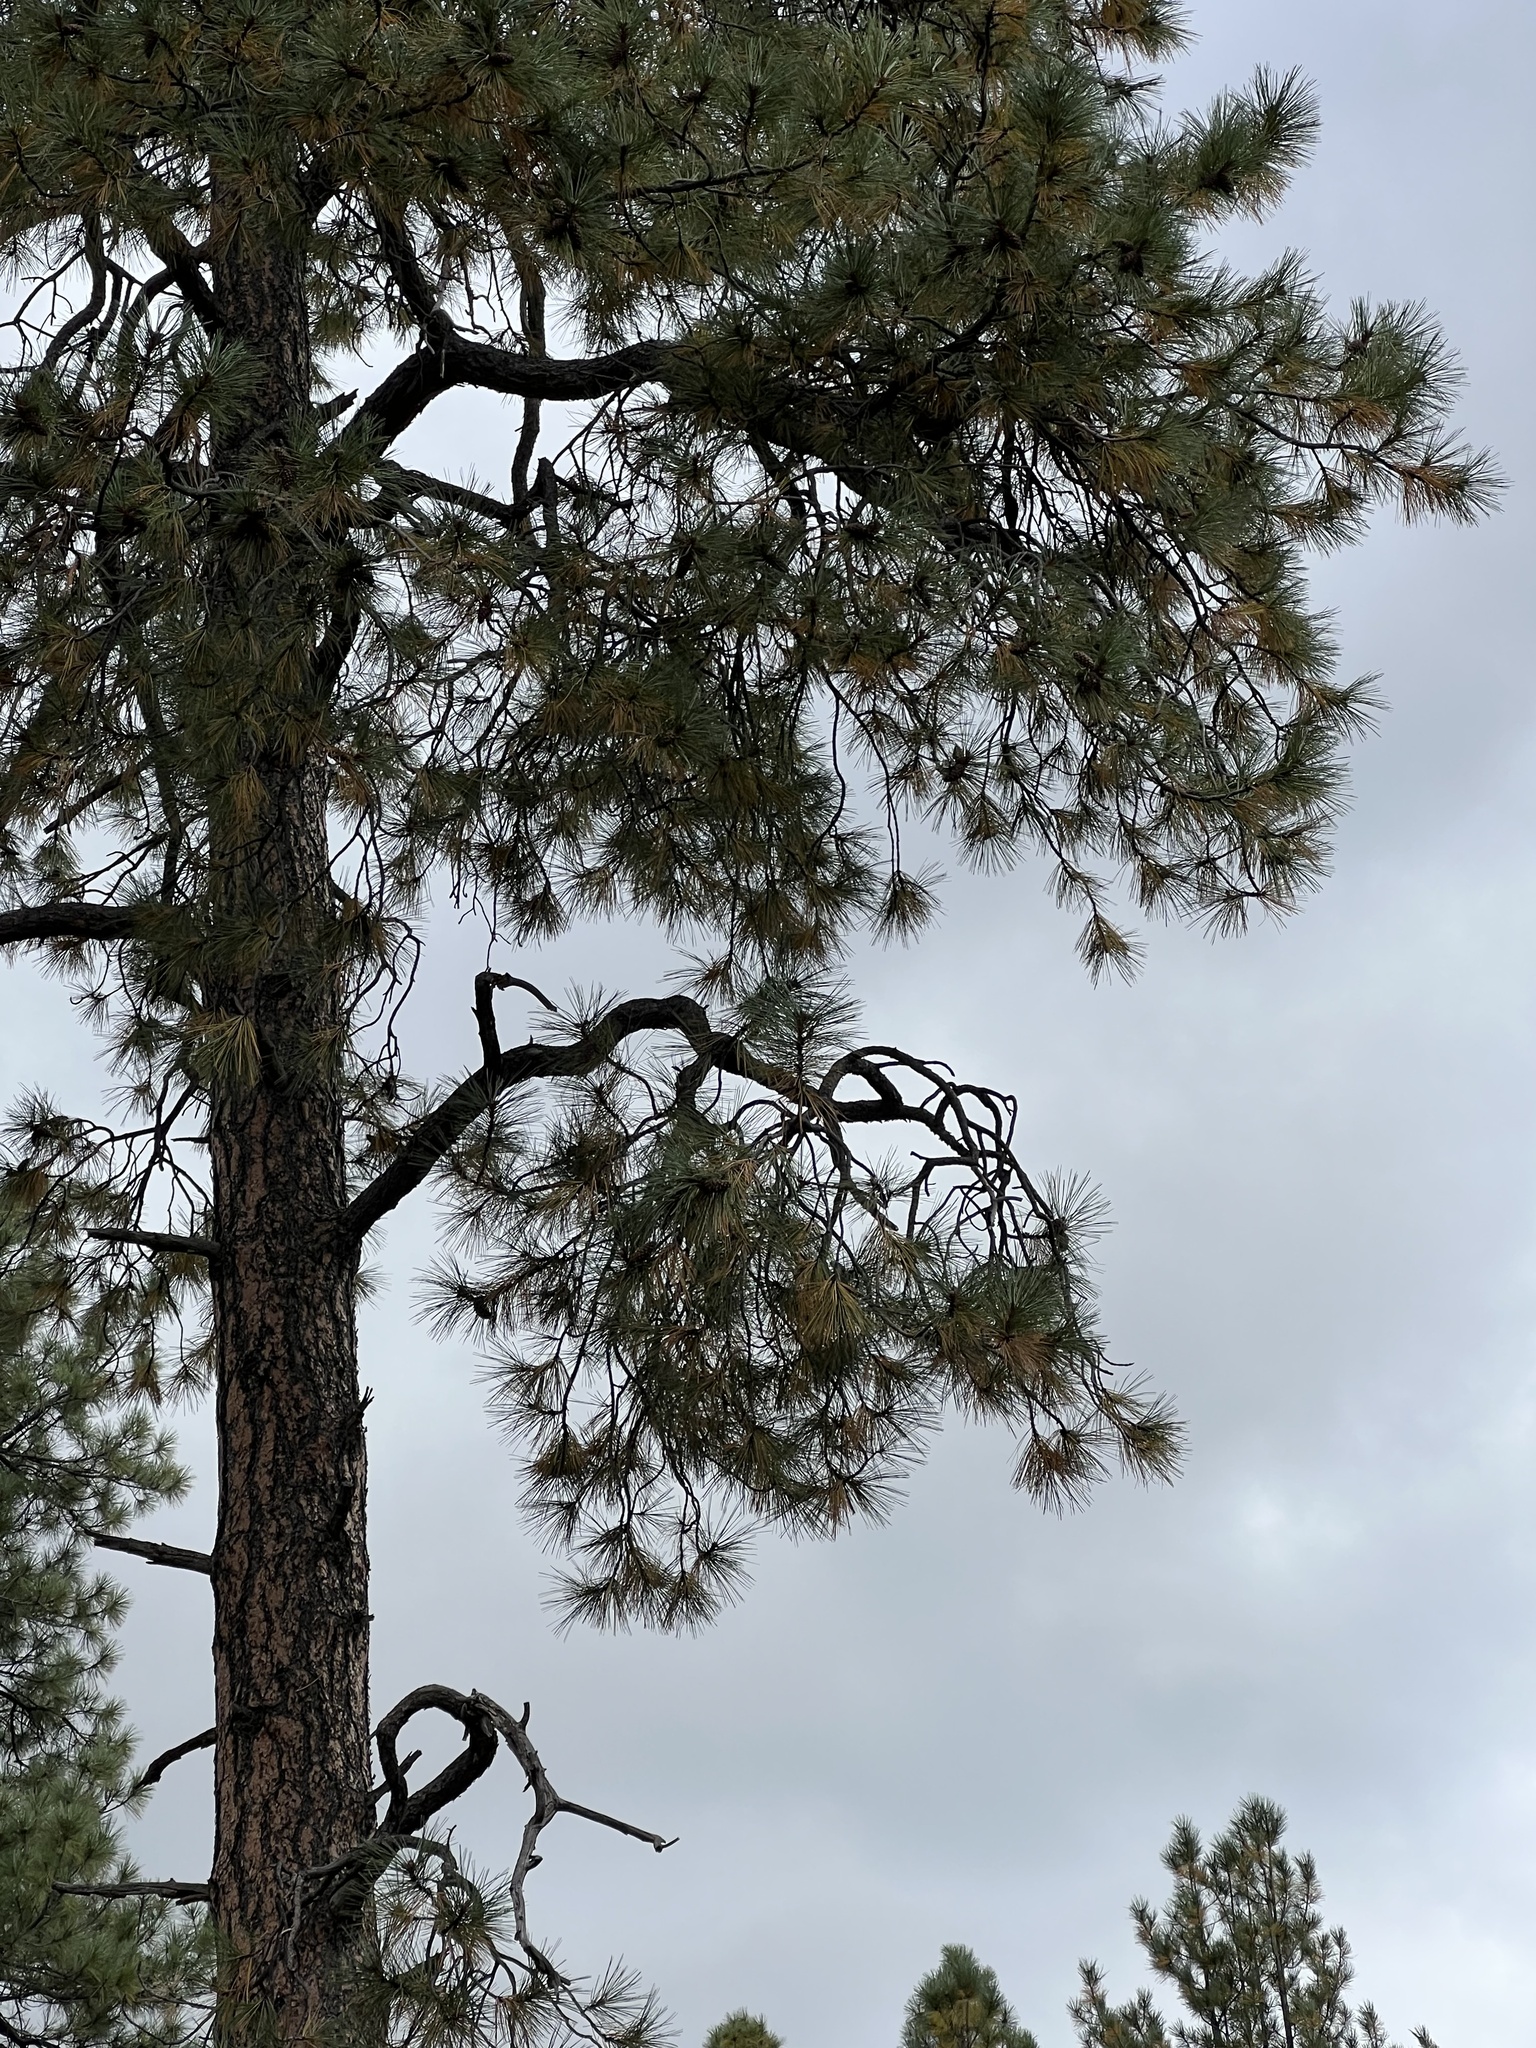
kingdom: Plantae
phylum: Tracheophyta
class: Pinopsida
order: Pinales
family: Pinaceae
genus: Pinus
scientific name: Pinus ponderosa
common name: Western yellow-pine
